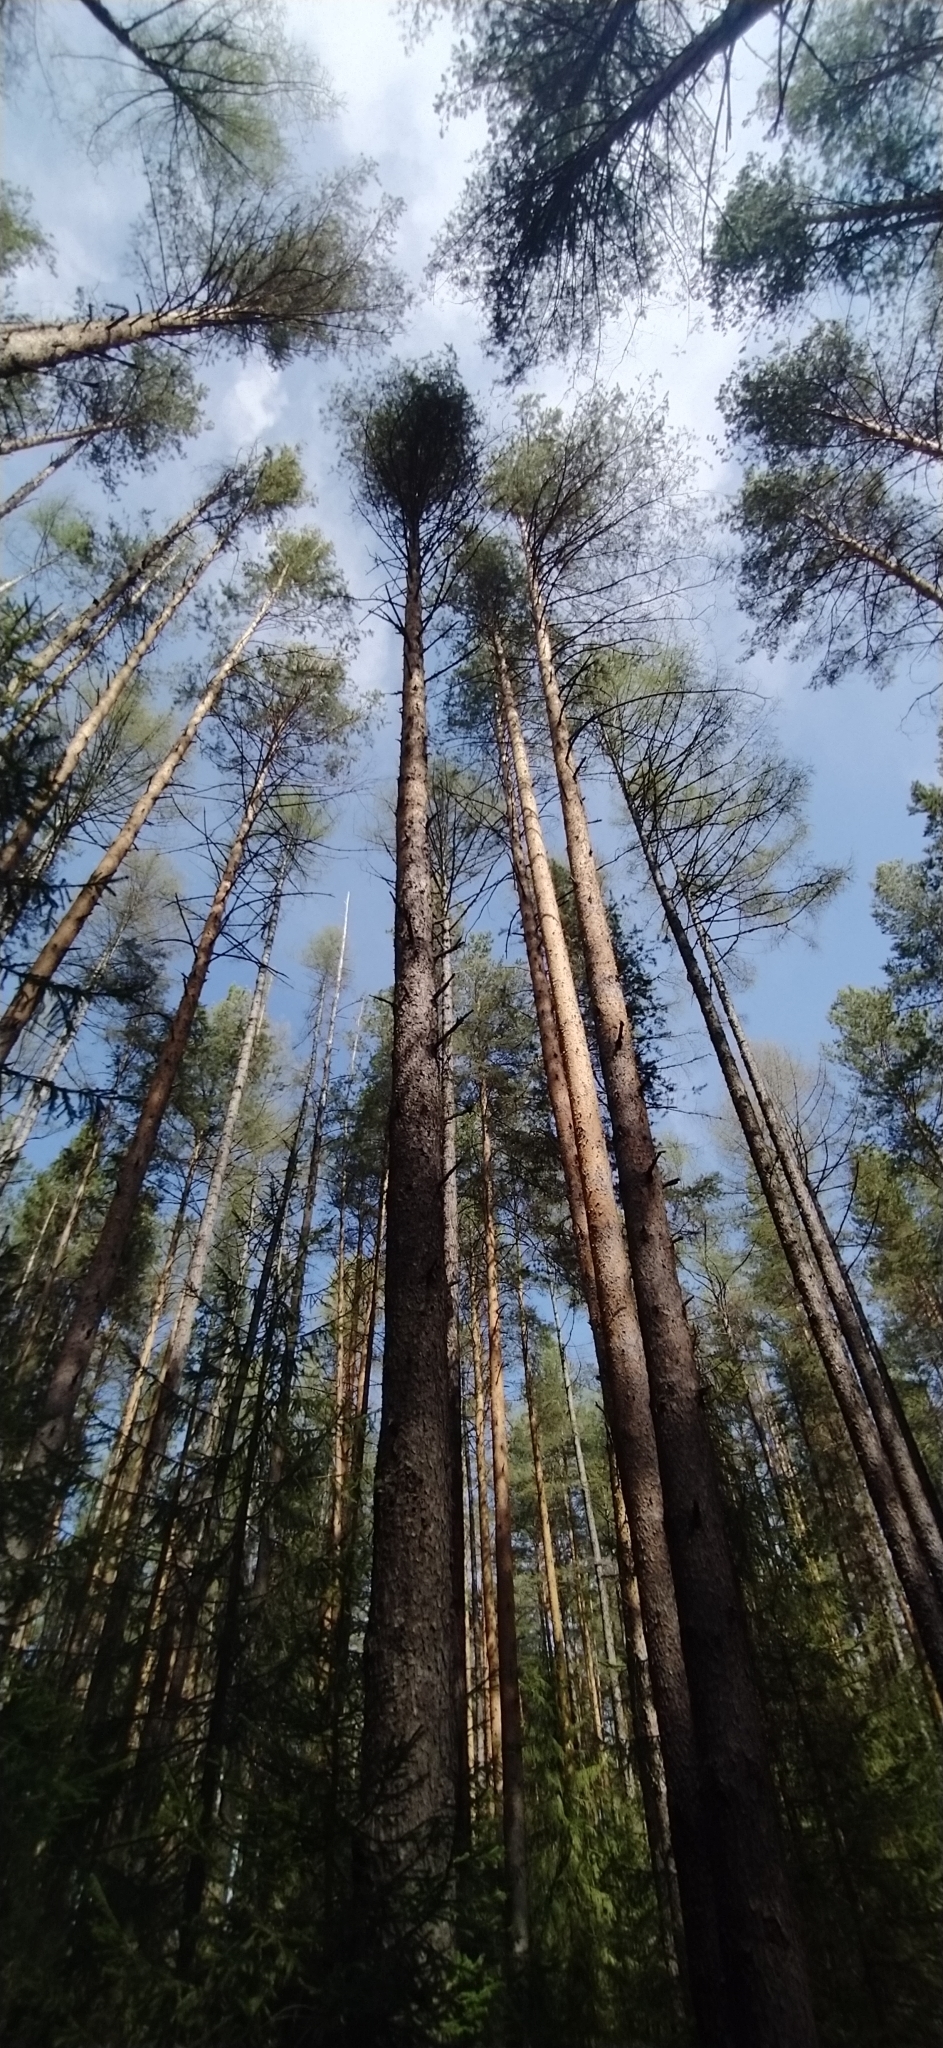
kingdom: Plantae
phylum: Tracheophyta
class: Pinopsida
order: Pinales
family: Pinaceae
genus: Larix
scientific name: Larix sibirica
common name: Siberian larch
